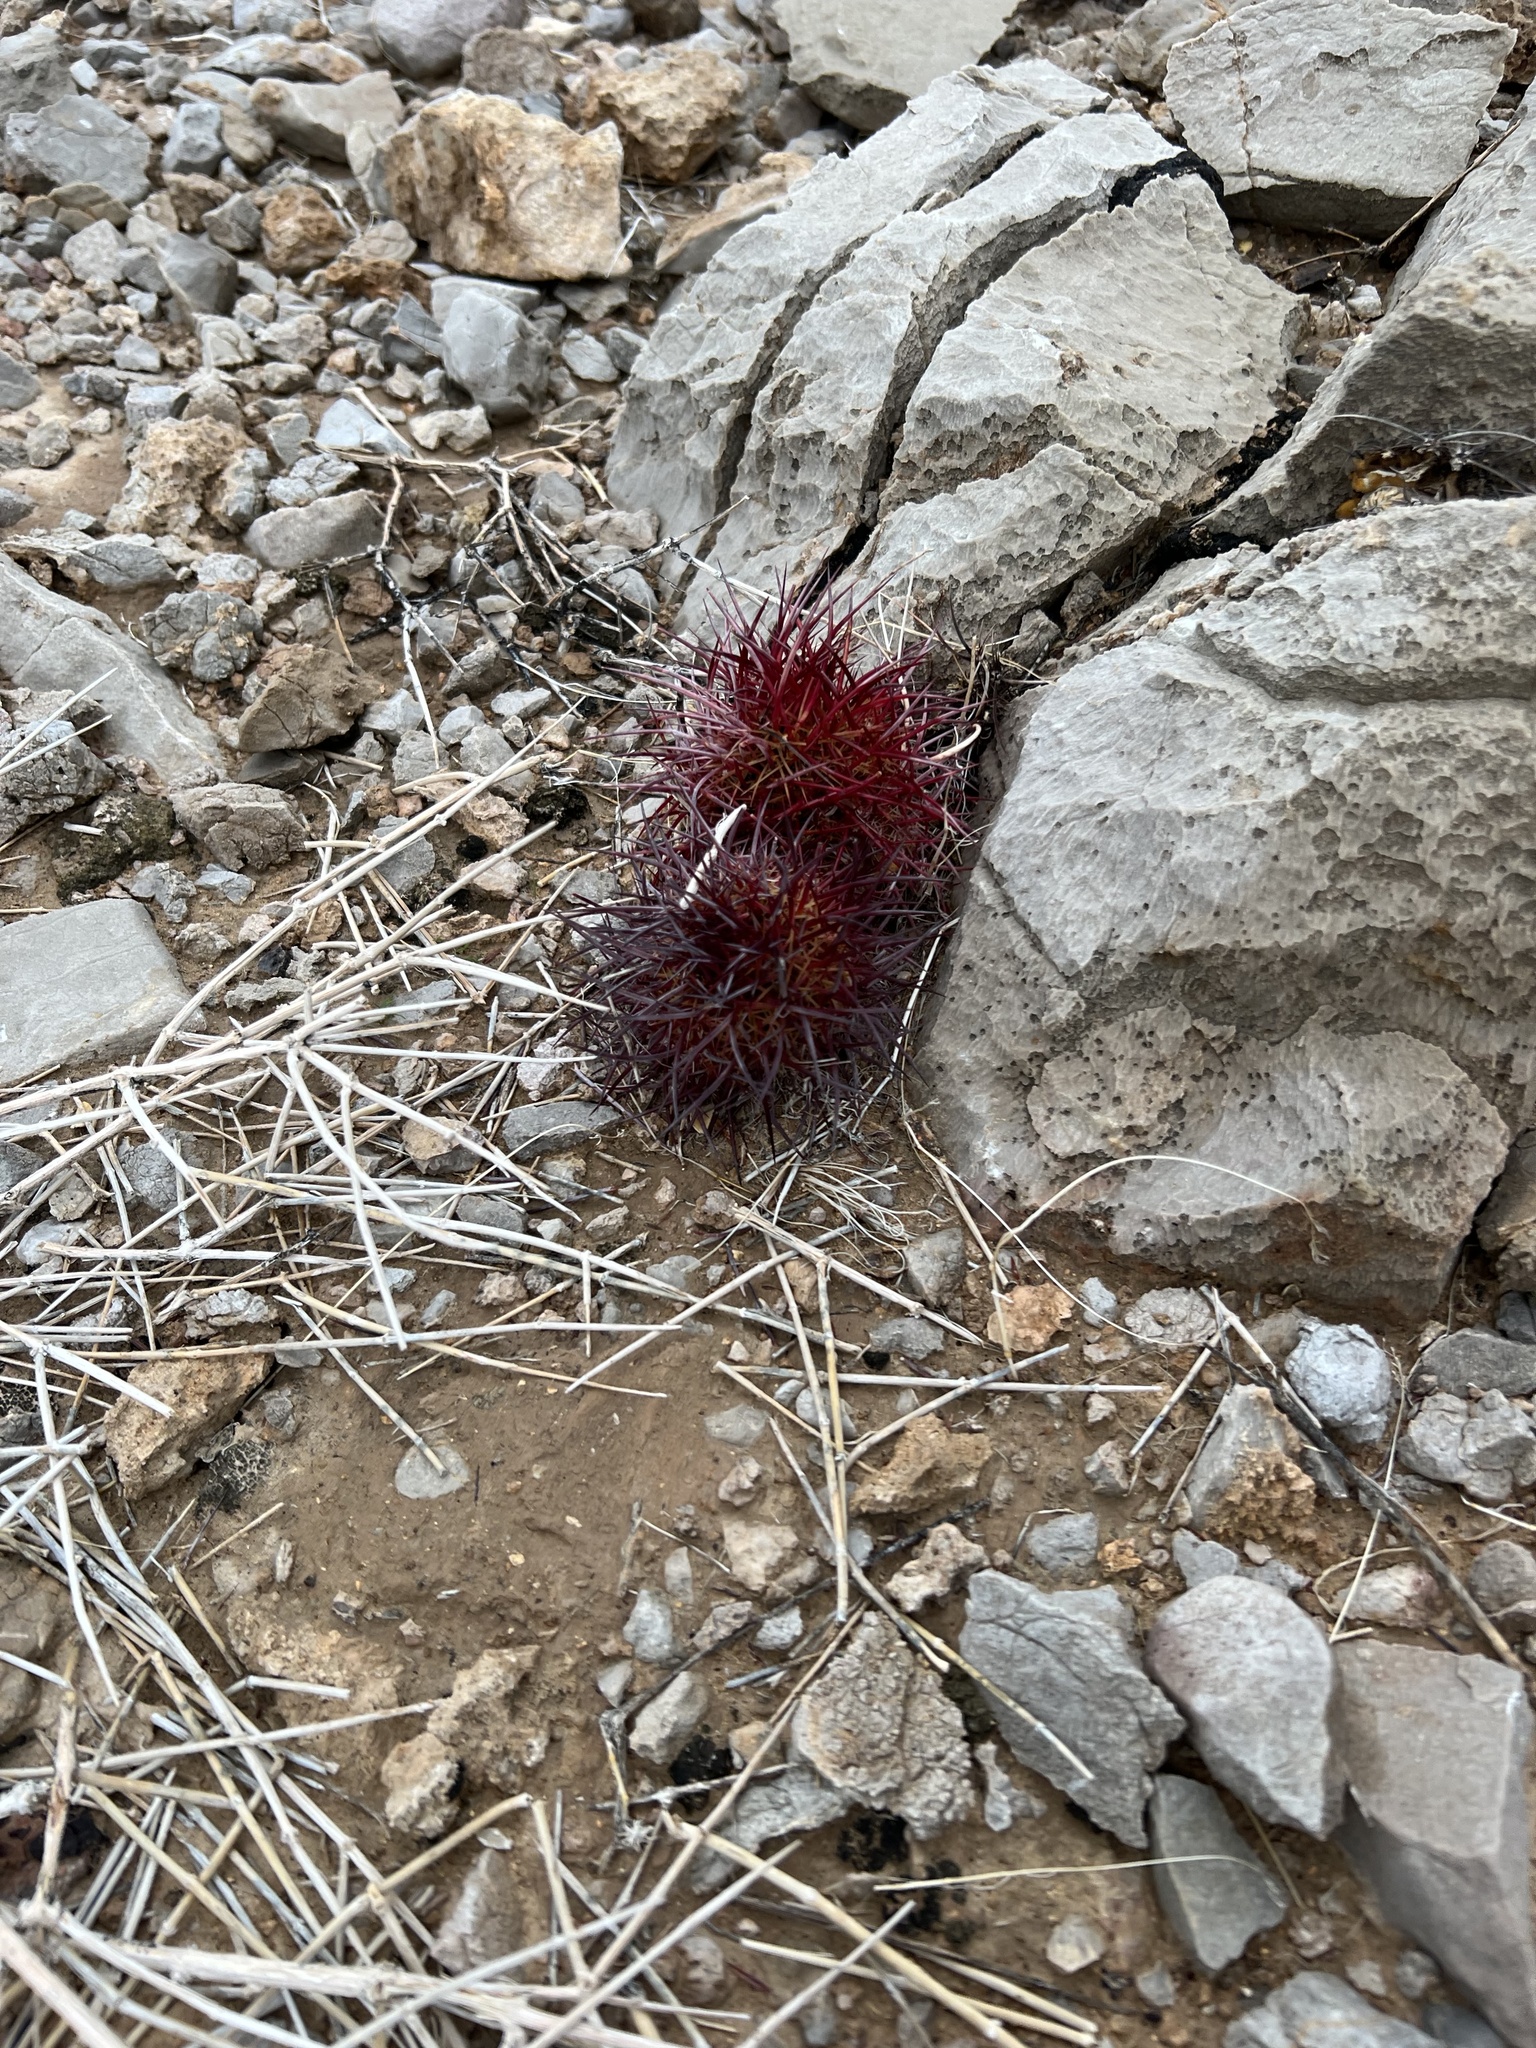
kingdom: Plantae
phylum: Tracheophyta
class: Magnoliopsida
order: Caryophyllales
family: Cactaceae
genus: Sclerocactus
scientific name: Sclerocactus johnsonii
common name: Eight-spine fishhook cactus
